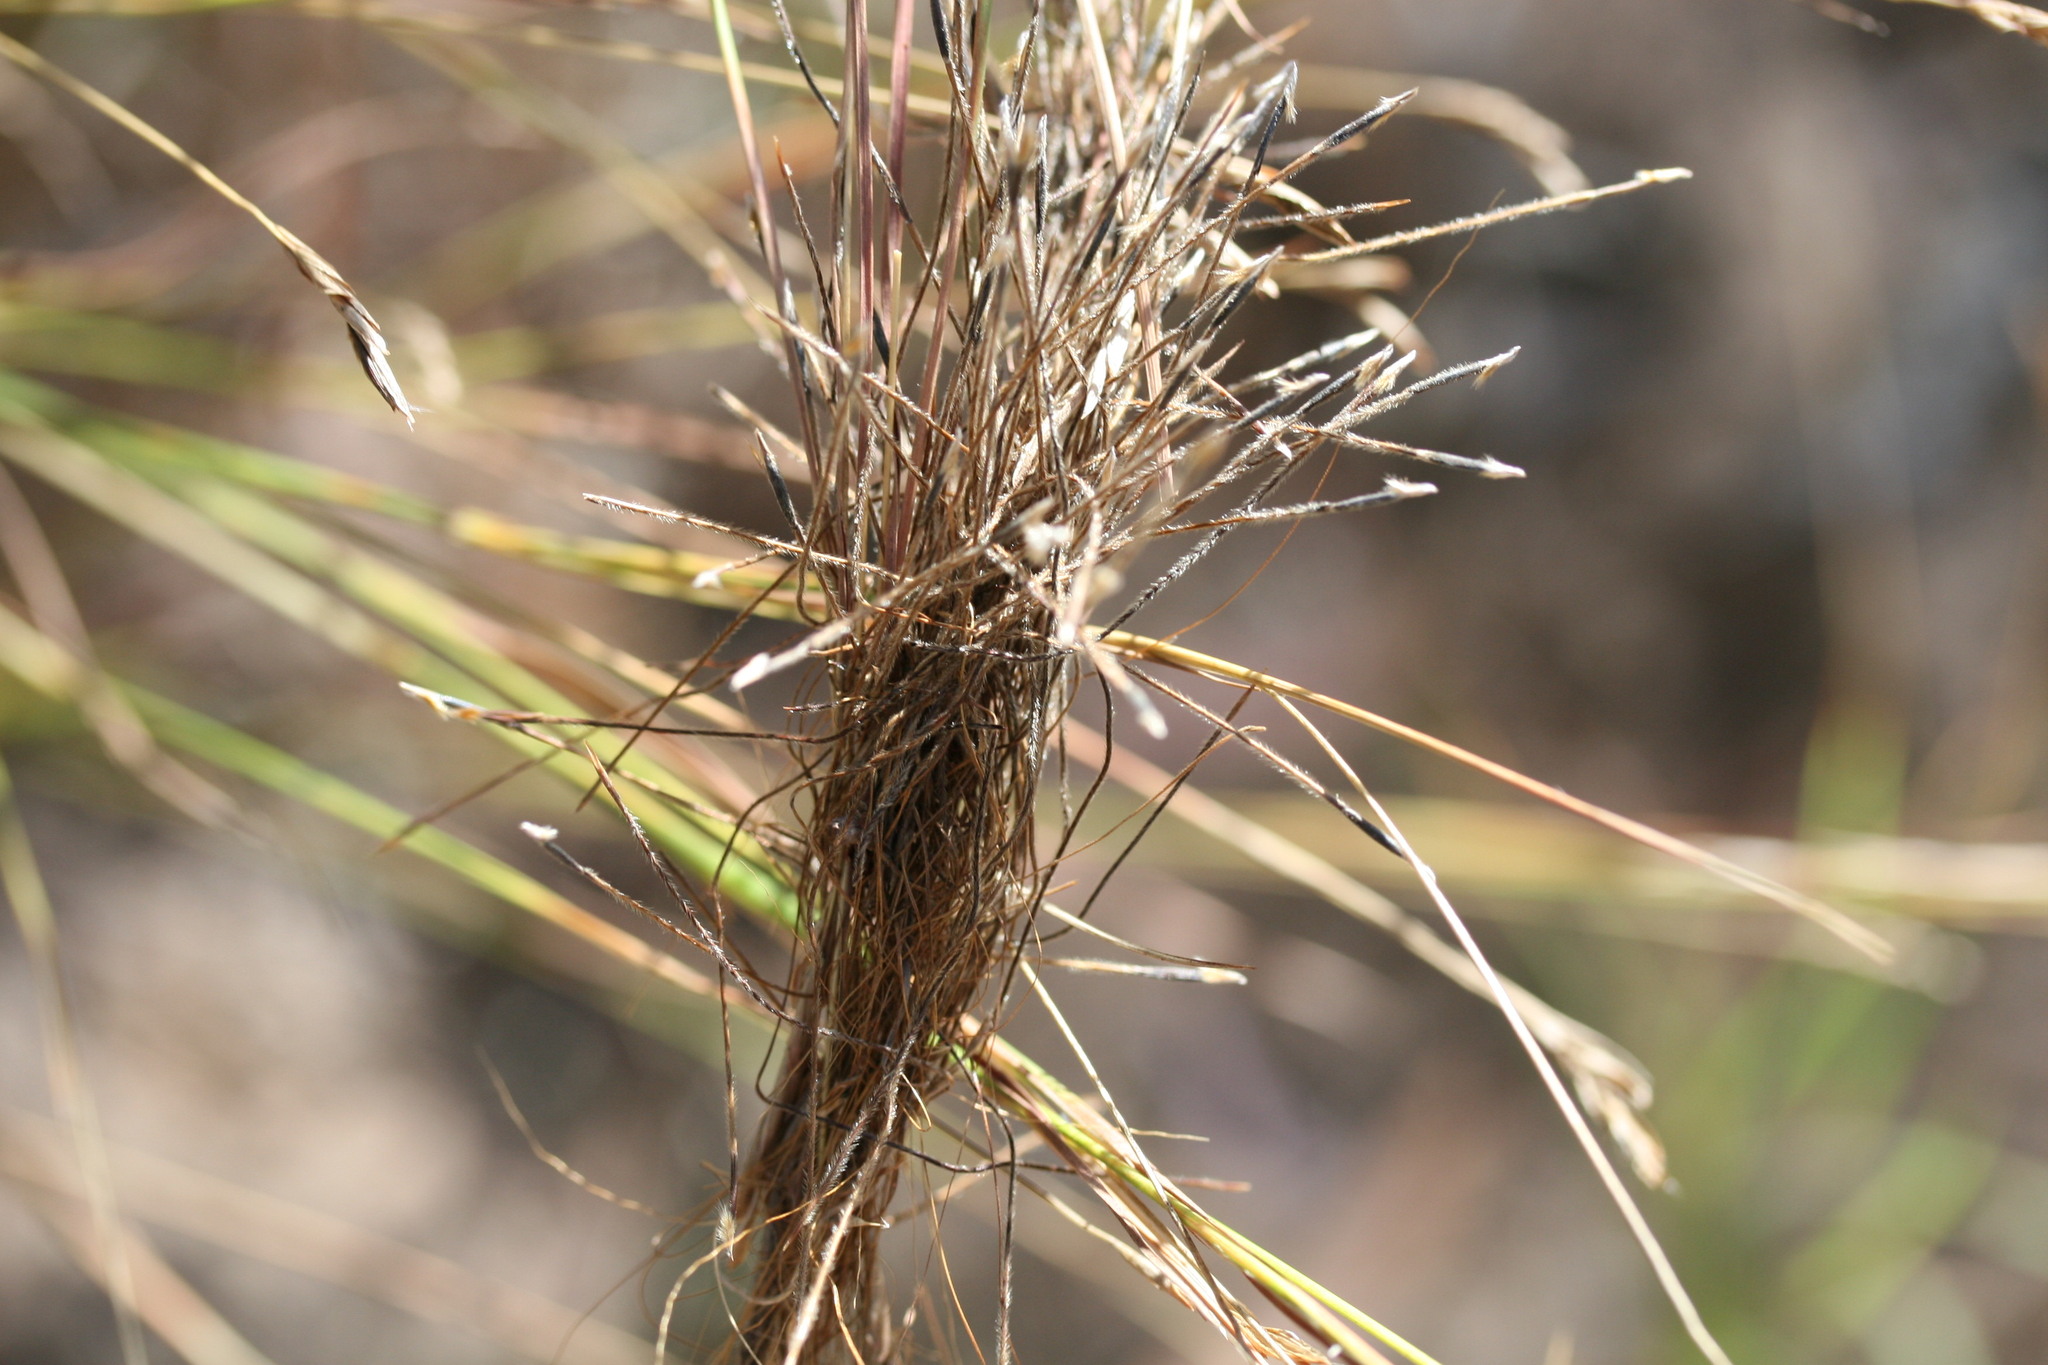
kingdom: Plantae
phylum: Tracheophyta
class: Liliopsida
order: Poales
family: Poaceae
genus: Heteropogon
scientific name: Heteropogon contortus
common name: Tanglehead
